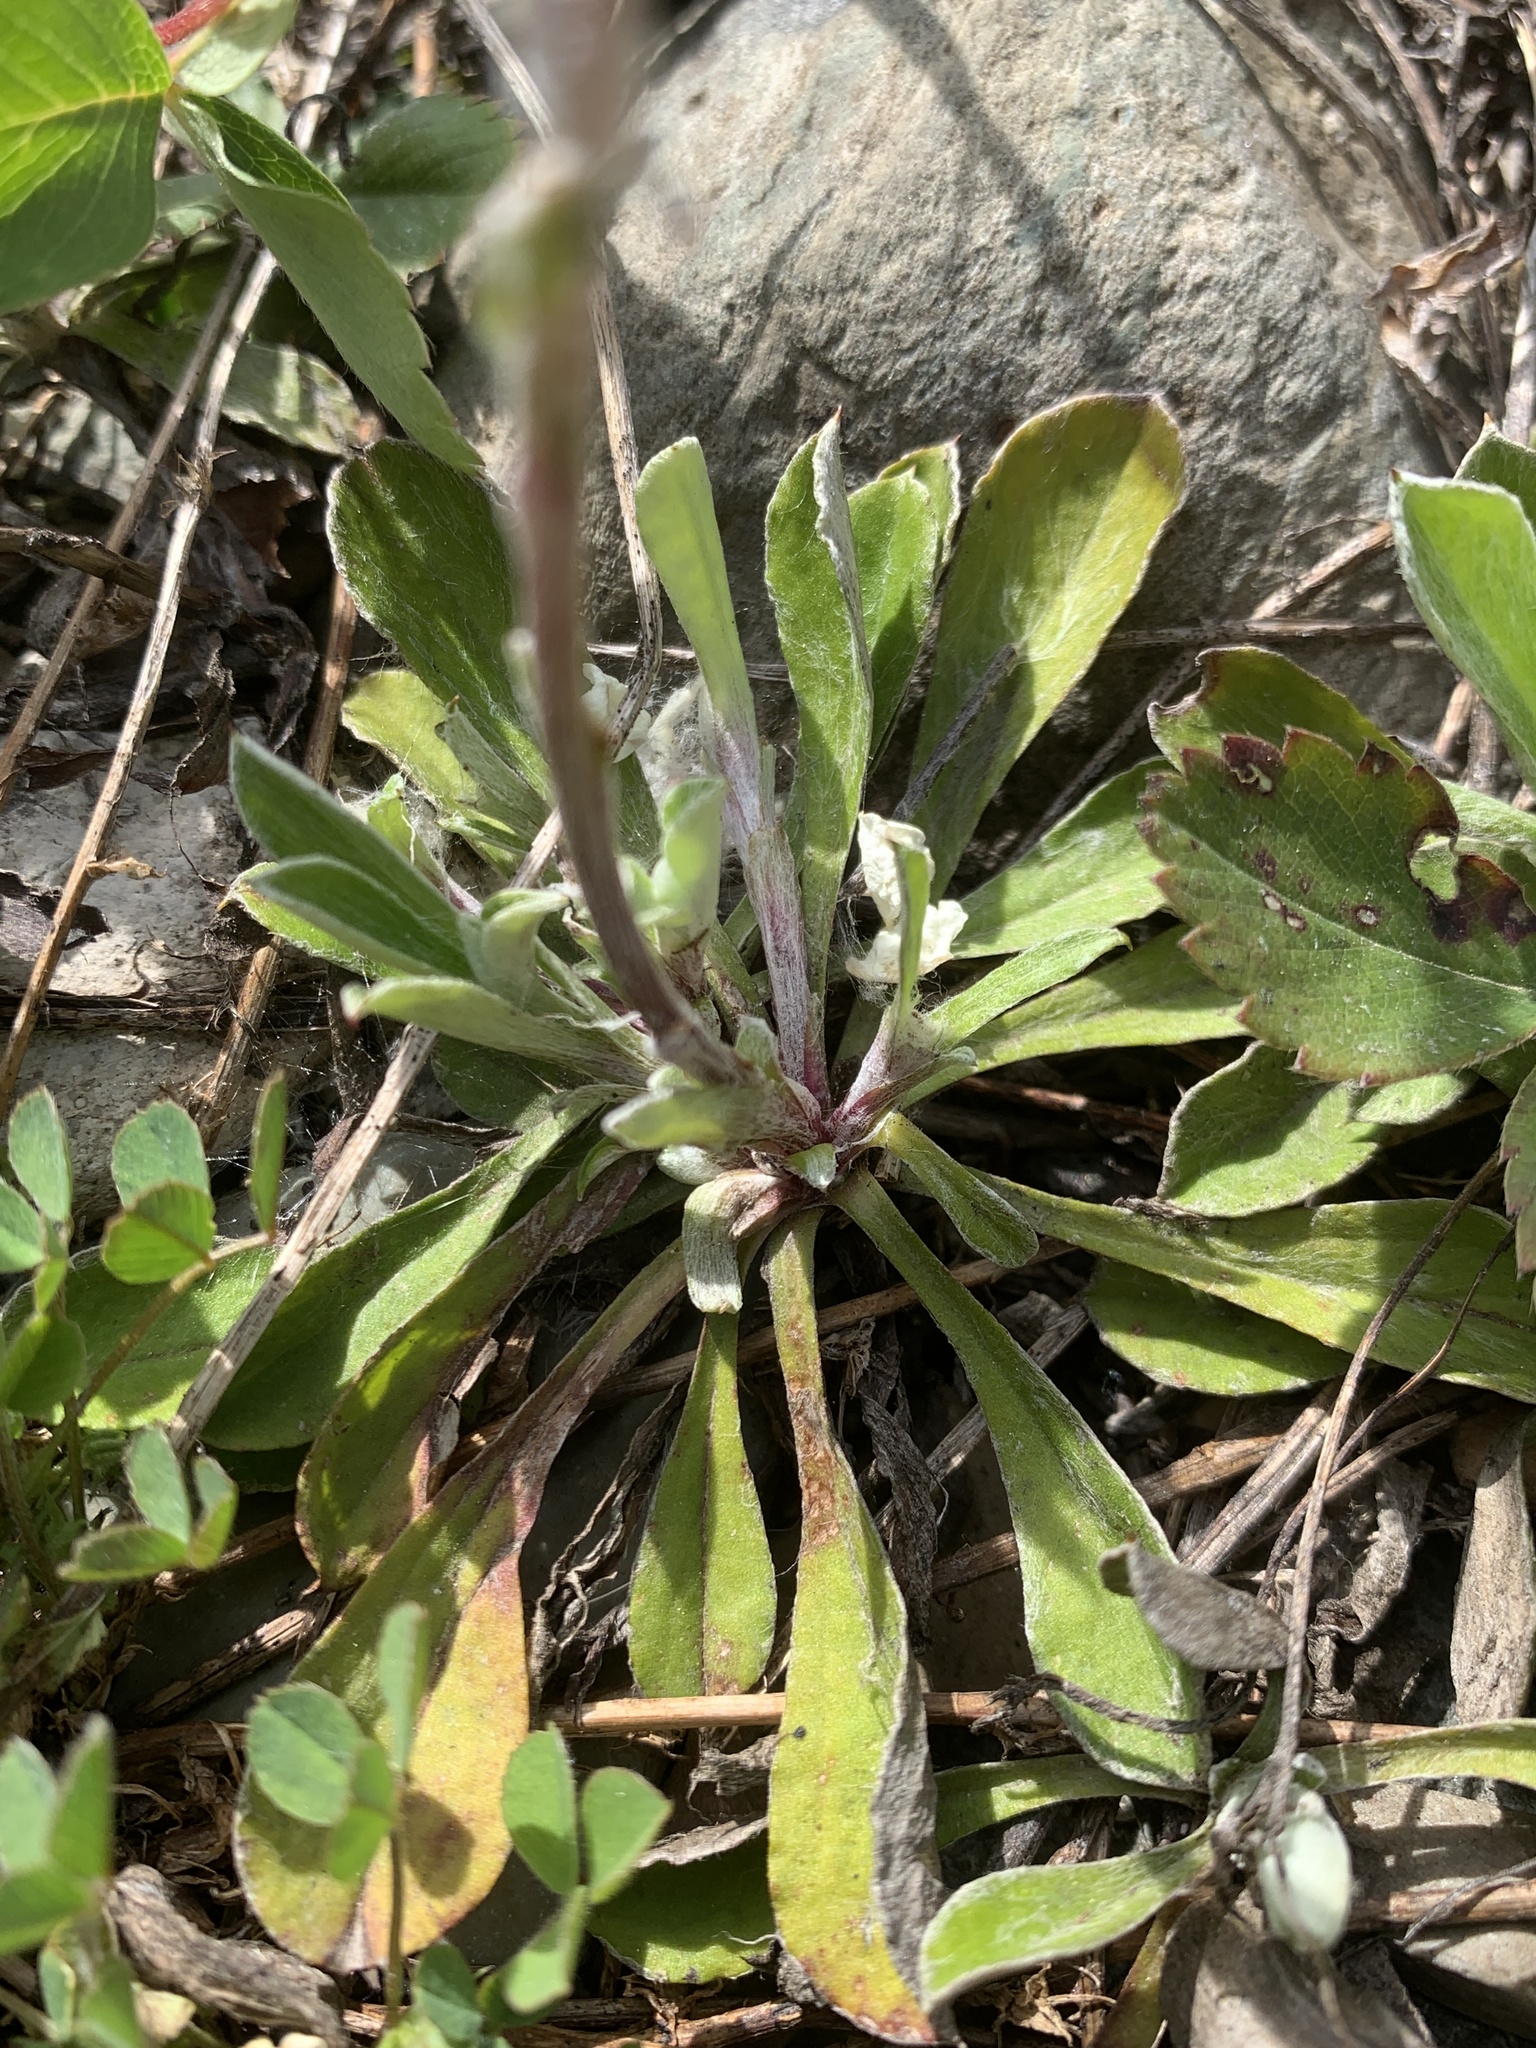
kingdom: Plantae
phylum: Tracheophyta
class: Magnoliopsida
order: Asterales
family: Asteraceae
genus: Antennaria
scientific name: Antennaria howellii
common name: Howell's pussytoes
